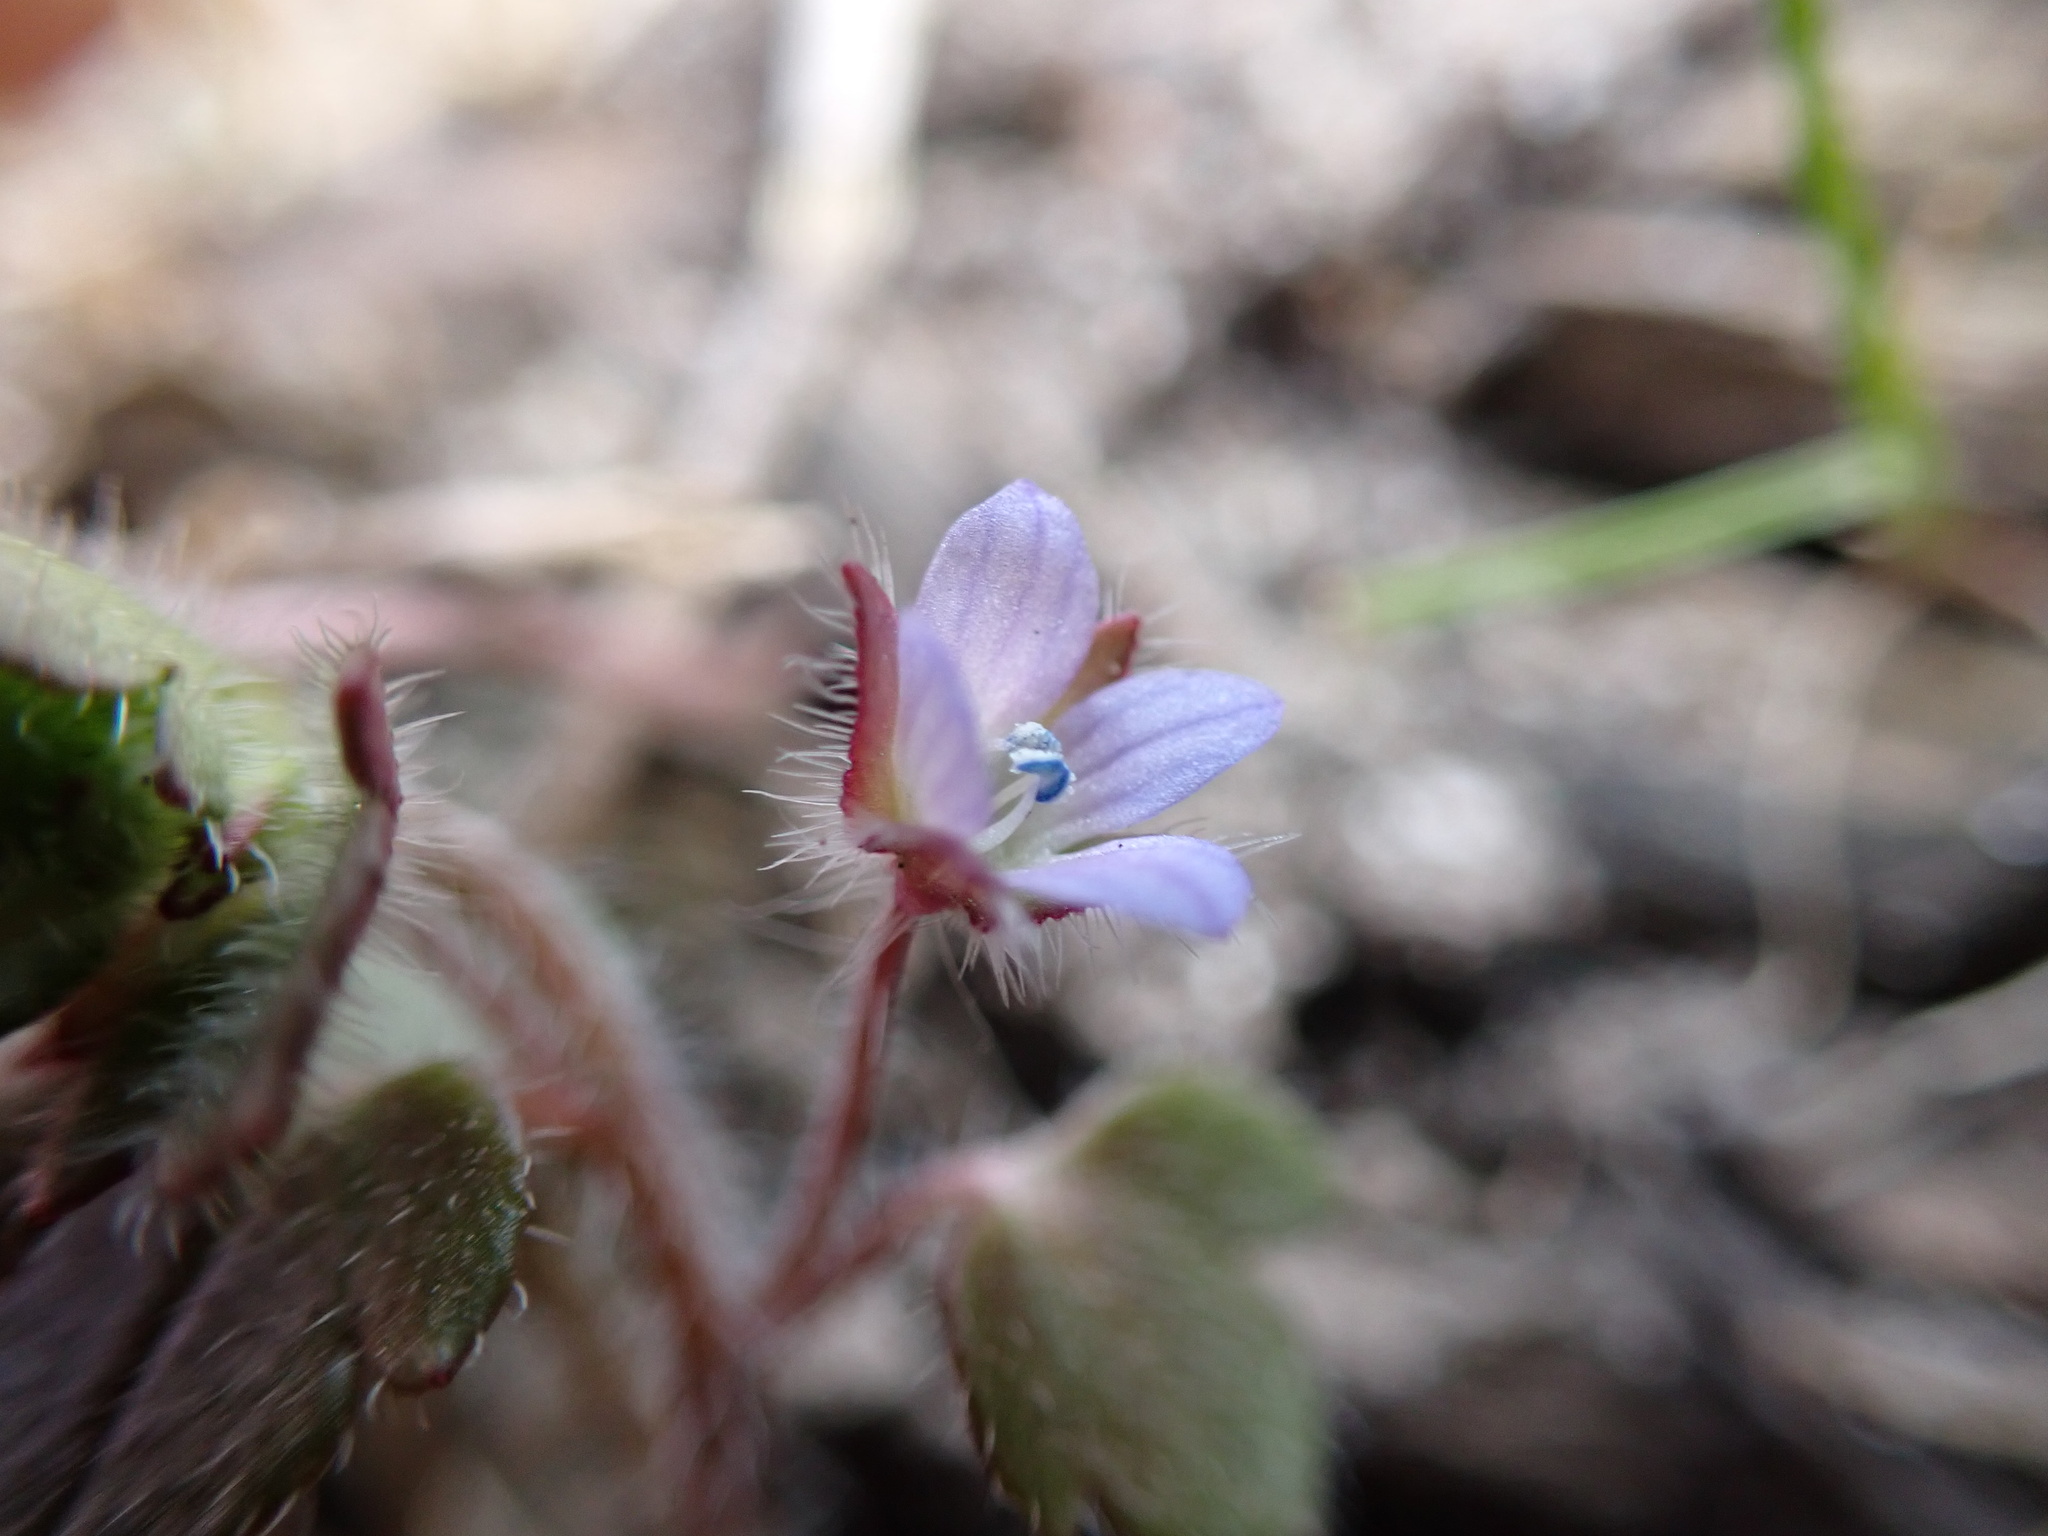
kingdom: Plantae
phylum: Tracheophyta
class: Magnoliopsida
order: Lamiales
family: Plantaginaceae
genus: Veronica
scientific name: Veronica hederifolia
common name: Ivy-leaved speedwell
